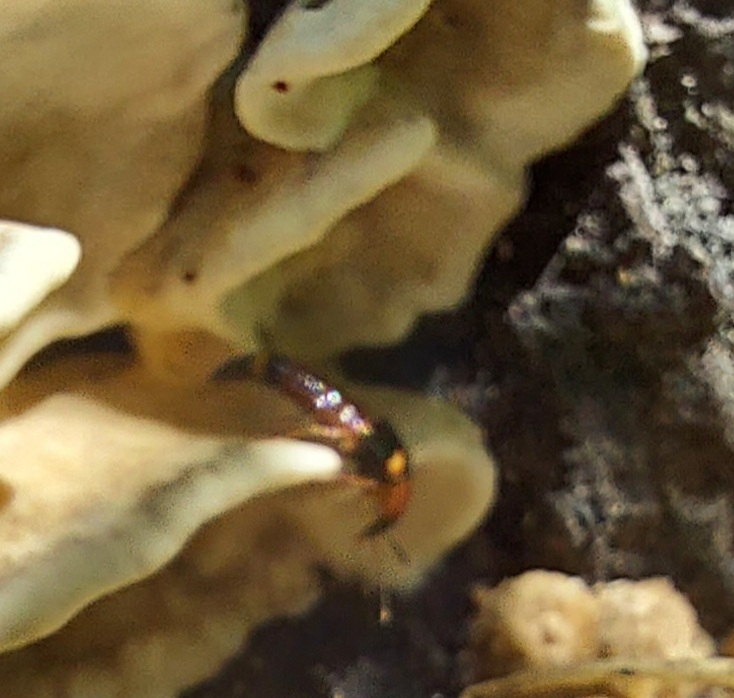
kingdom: Animalia
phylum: Arthropoda
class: Insecta
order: Coleoptera
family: Staphylinidae
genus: Bobitobus
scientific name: Bobitobus lunulatus
